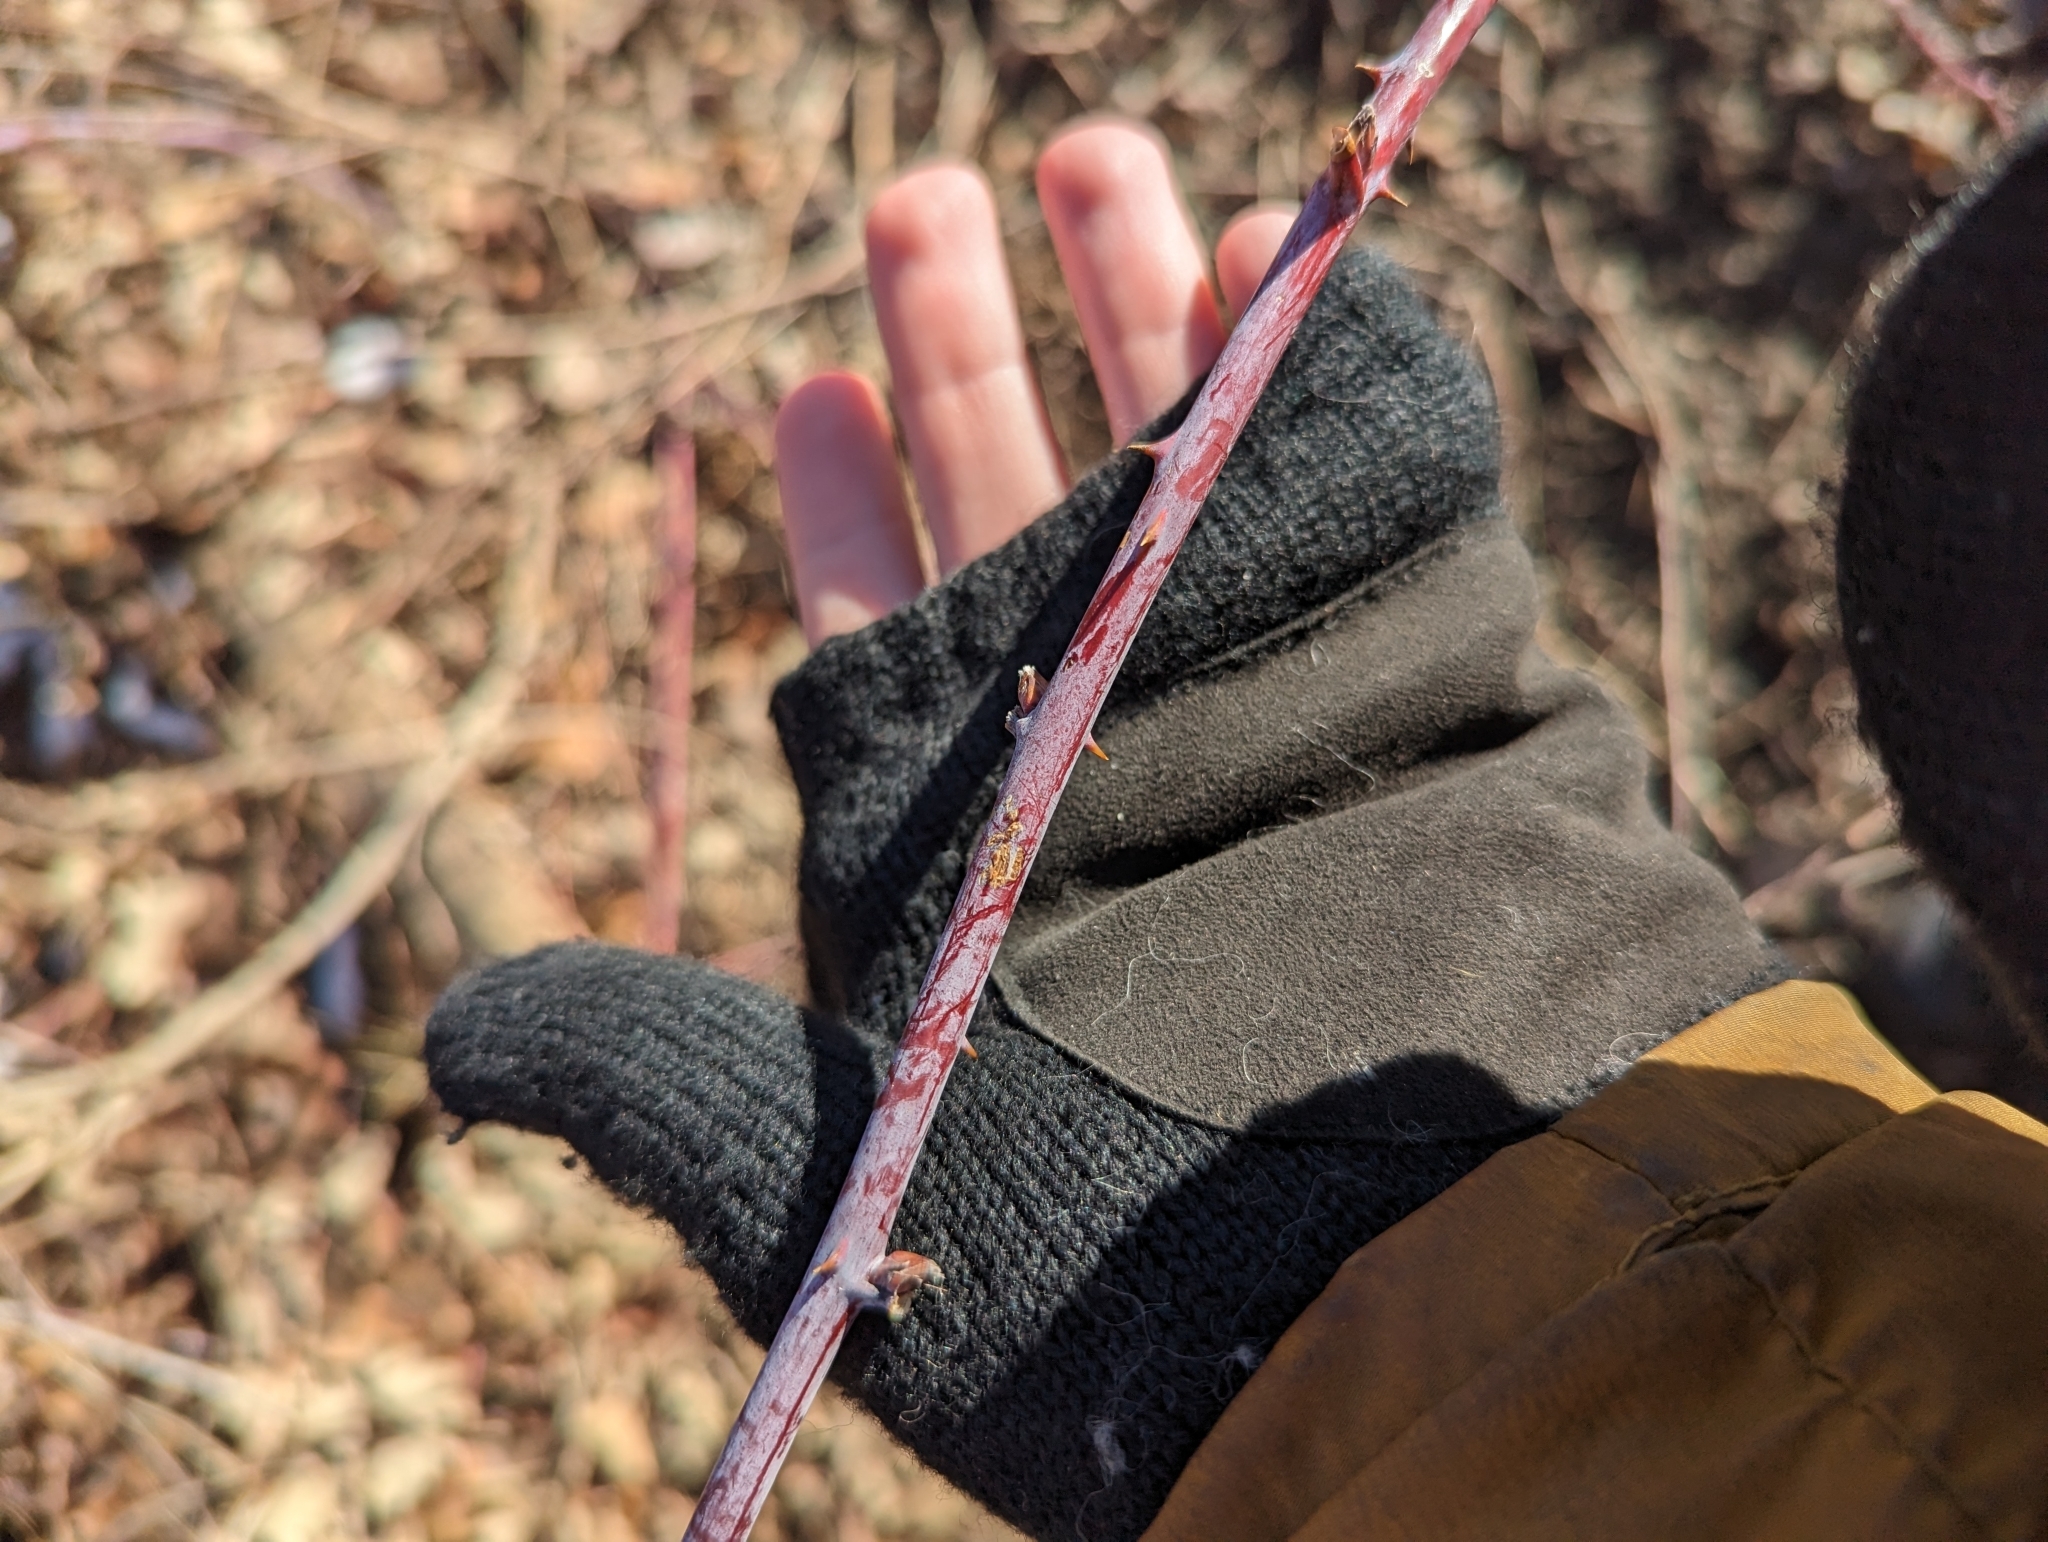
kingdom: Plantae
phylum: Tracheophyta
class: Magnoliopsida
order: Rosales
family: Rosaceae
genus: Rubus
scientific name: Rubus occidentalis
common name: Black raspberry
